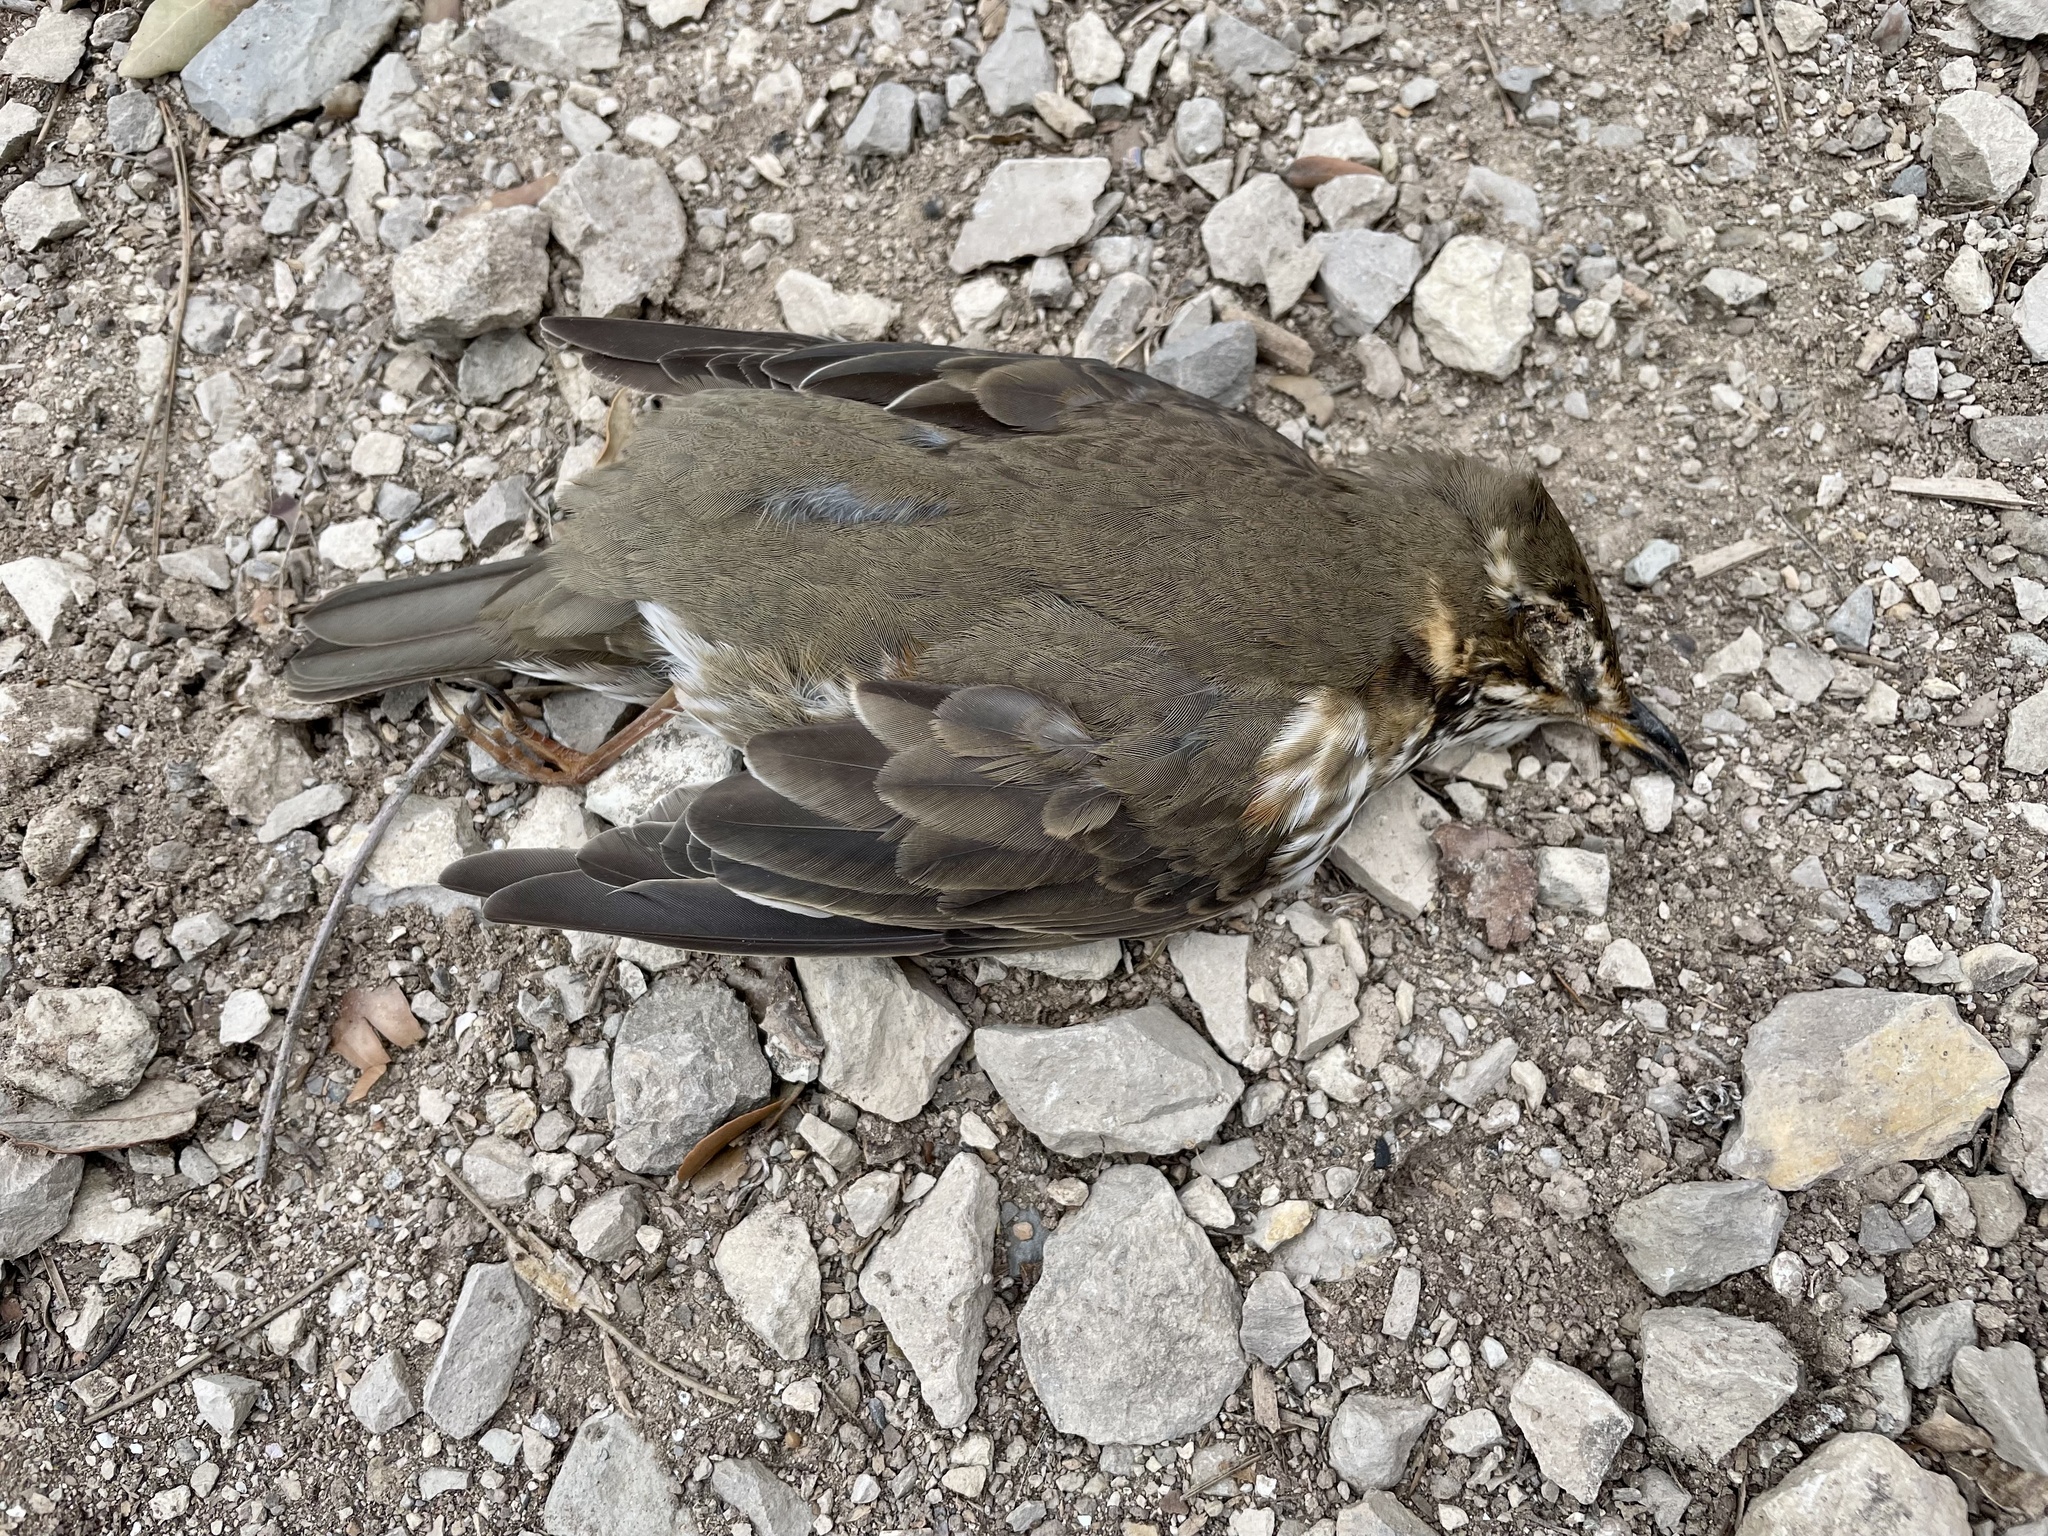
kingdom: Animalia
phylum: Chordata
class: Aves
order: Passeriformes
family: Turdidae
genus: Turdus
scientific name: Turdus iliacus
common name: Redwing
